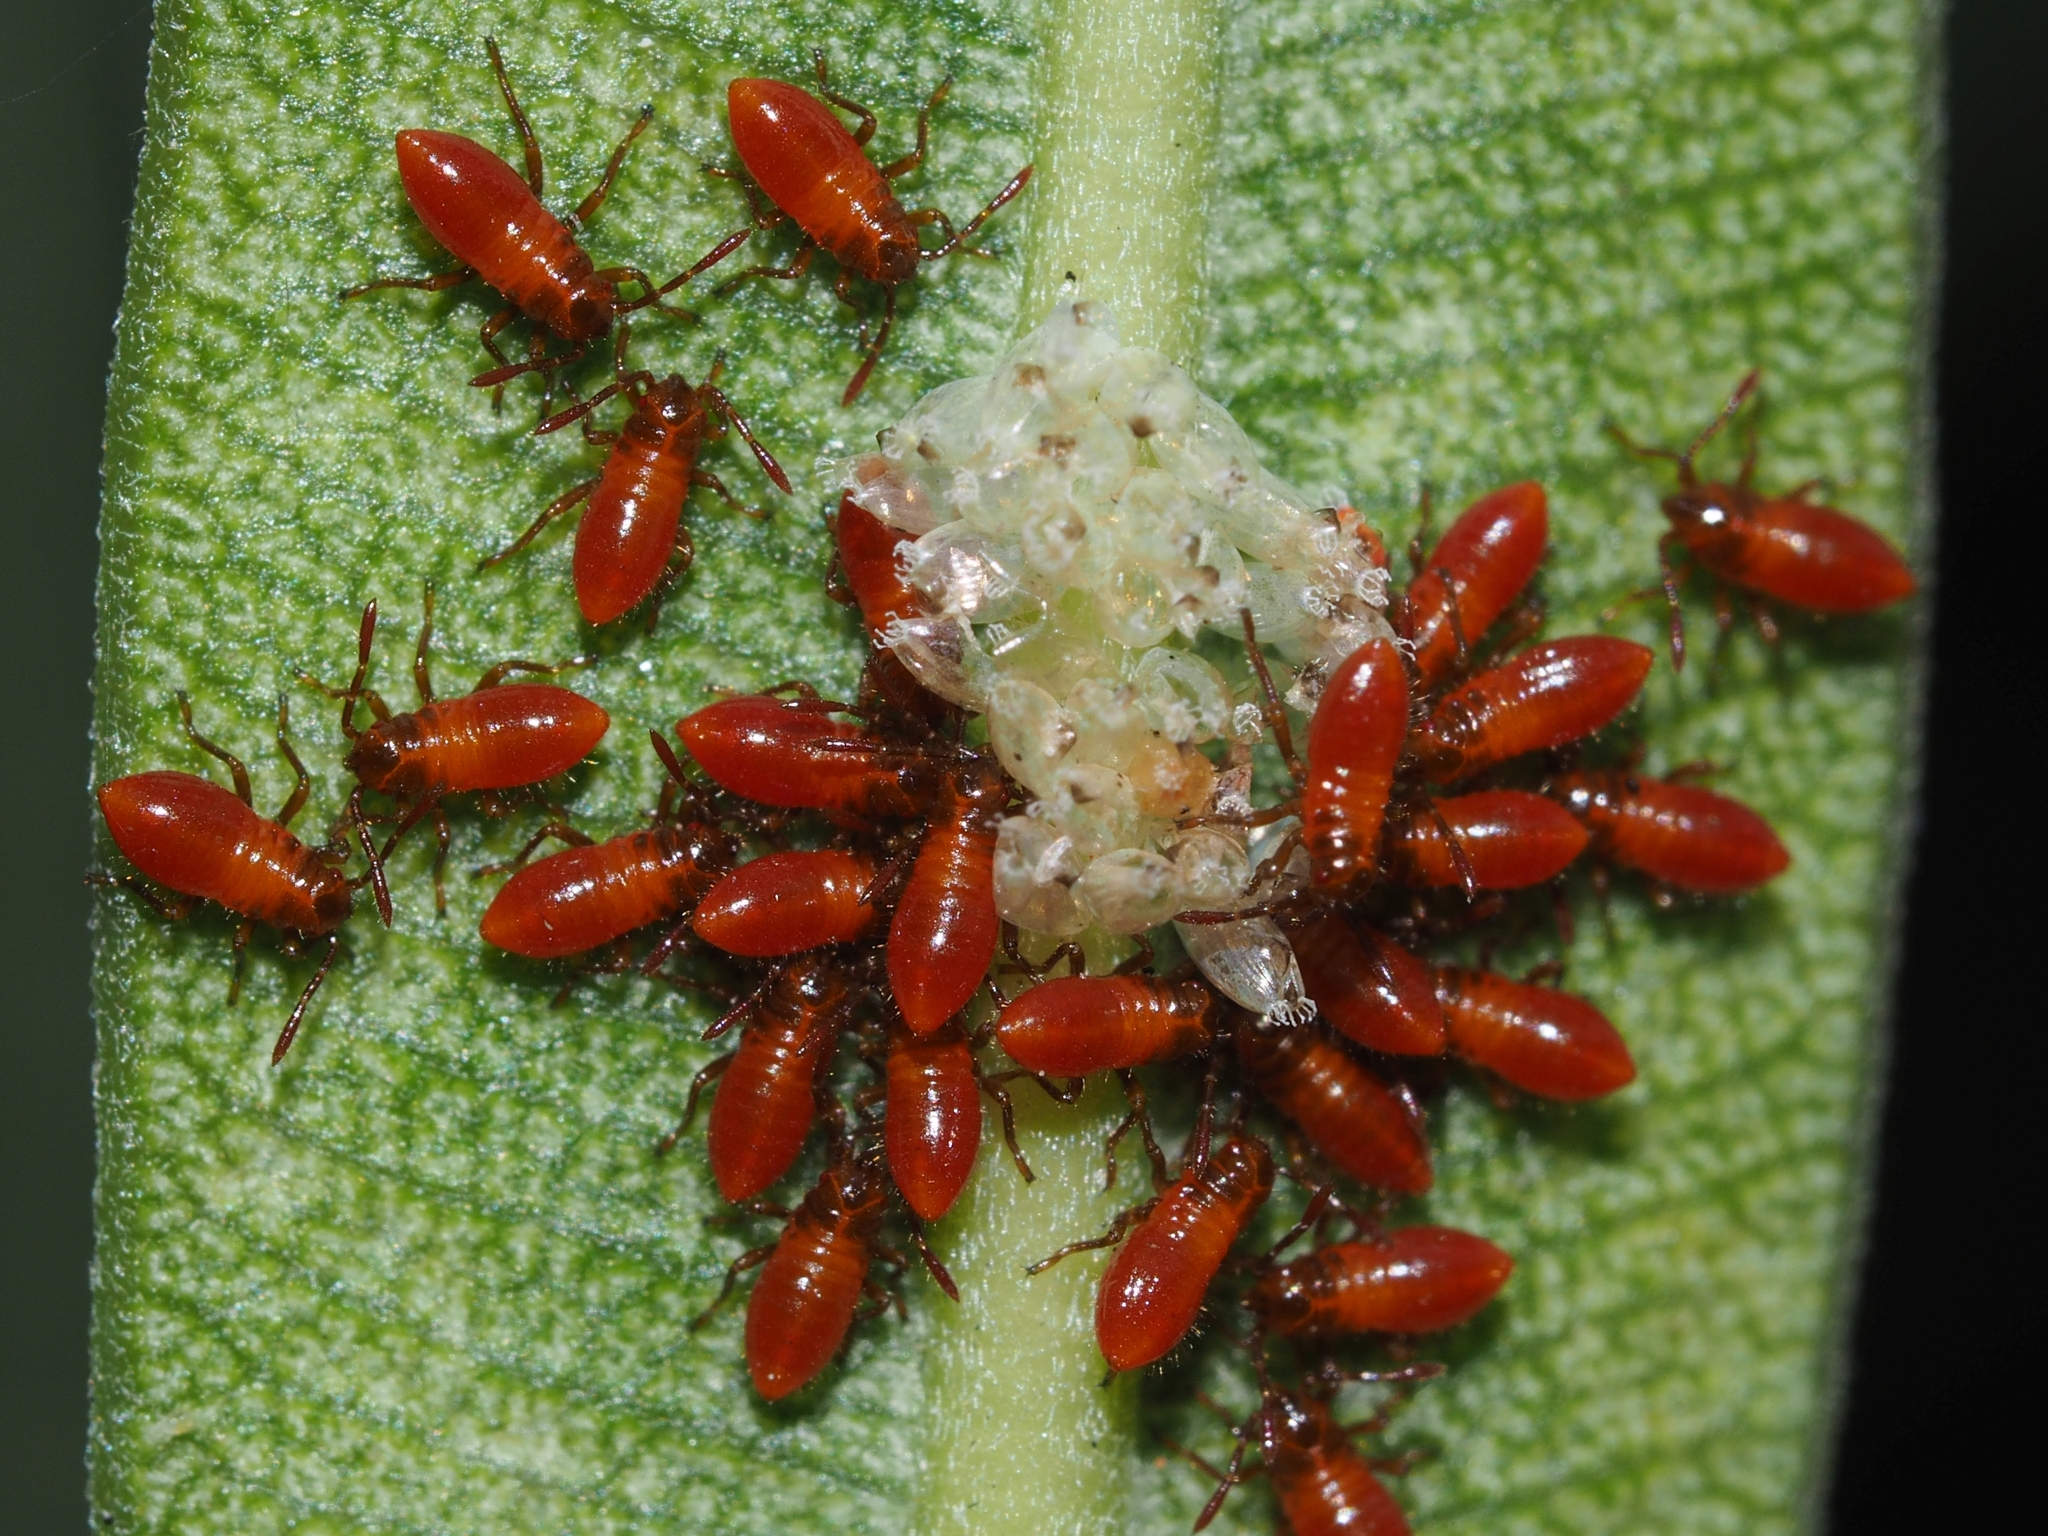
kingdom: Animalia
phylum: Arthropoda
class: Insecta
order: Hemiptera
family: Lygaeidae
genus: Caenocoris
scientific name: Caenocoris nerii
